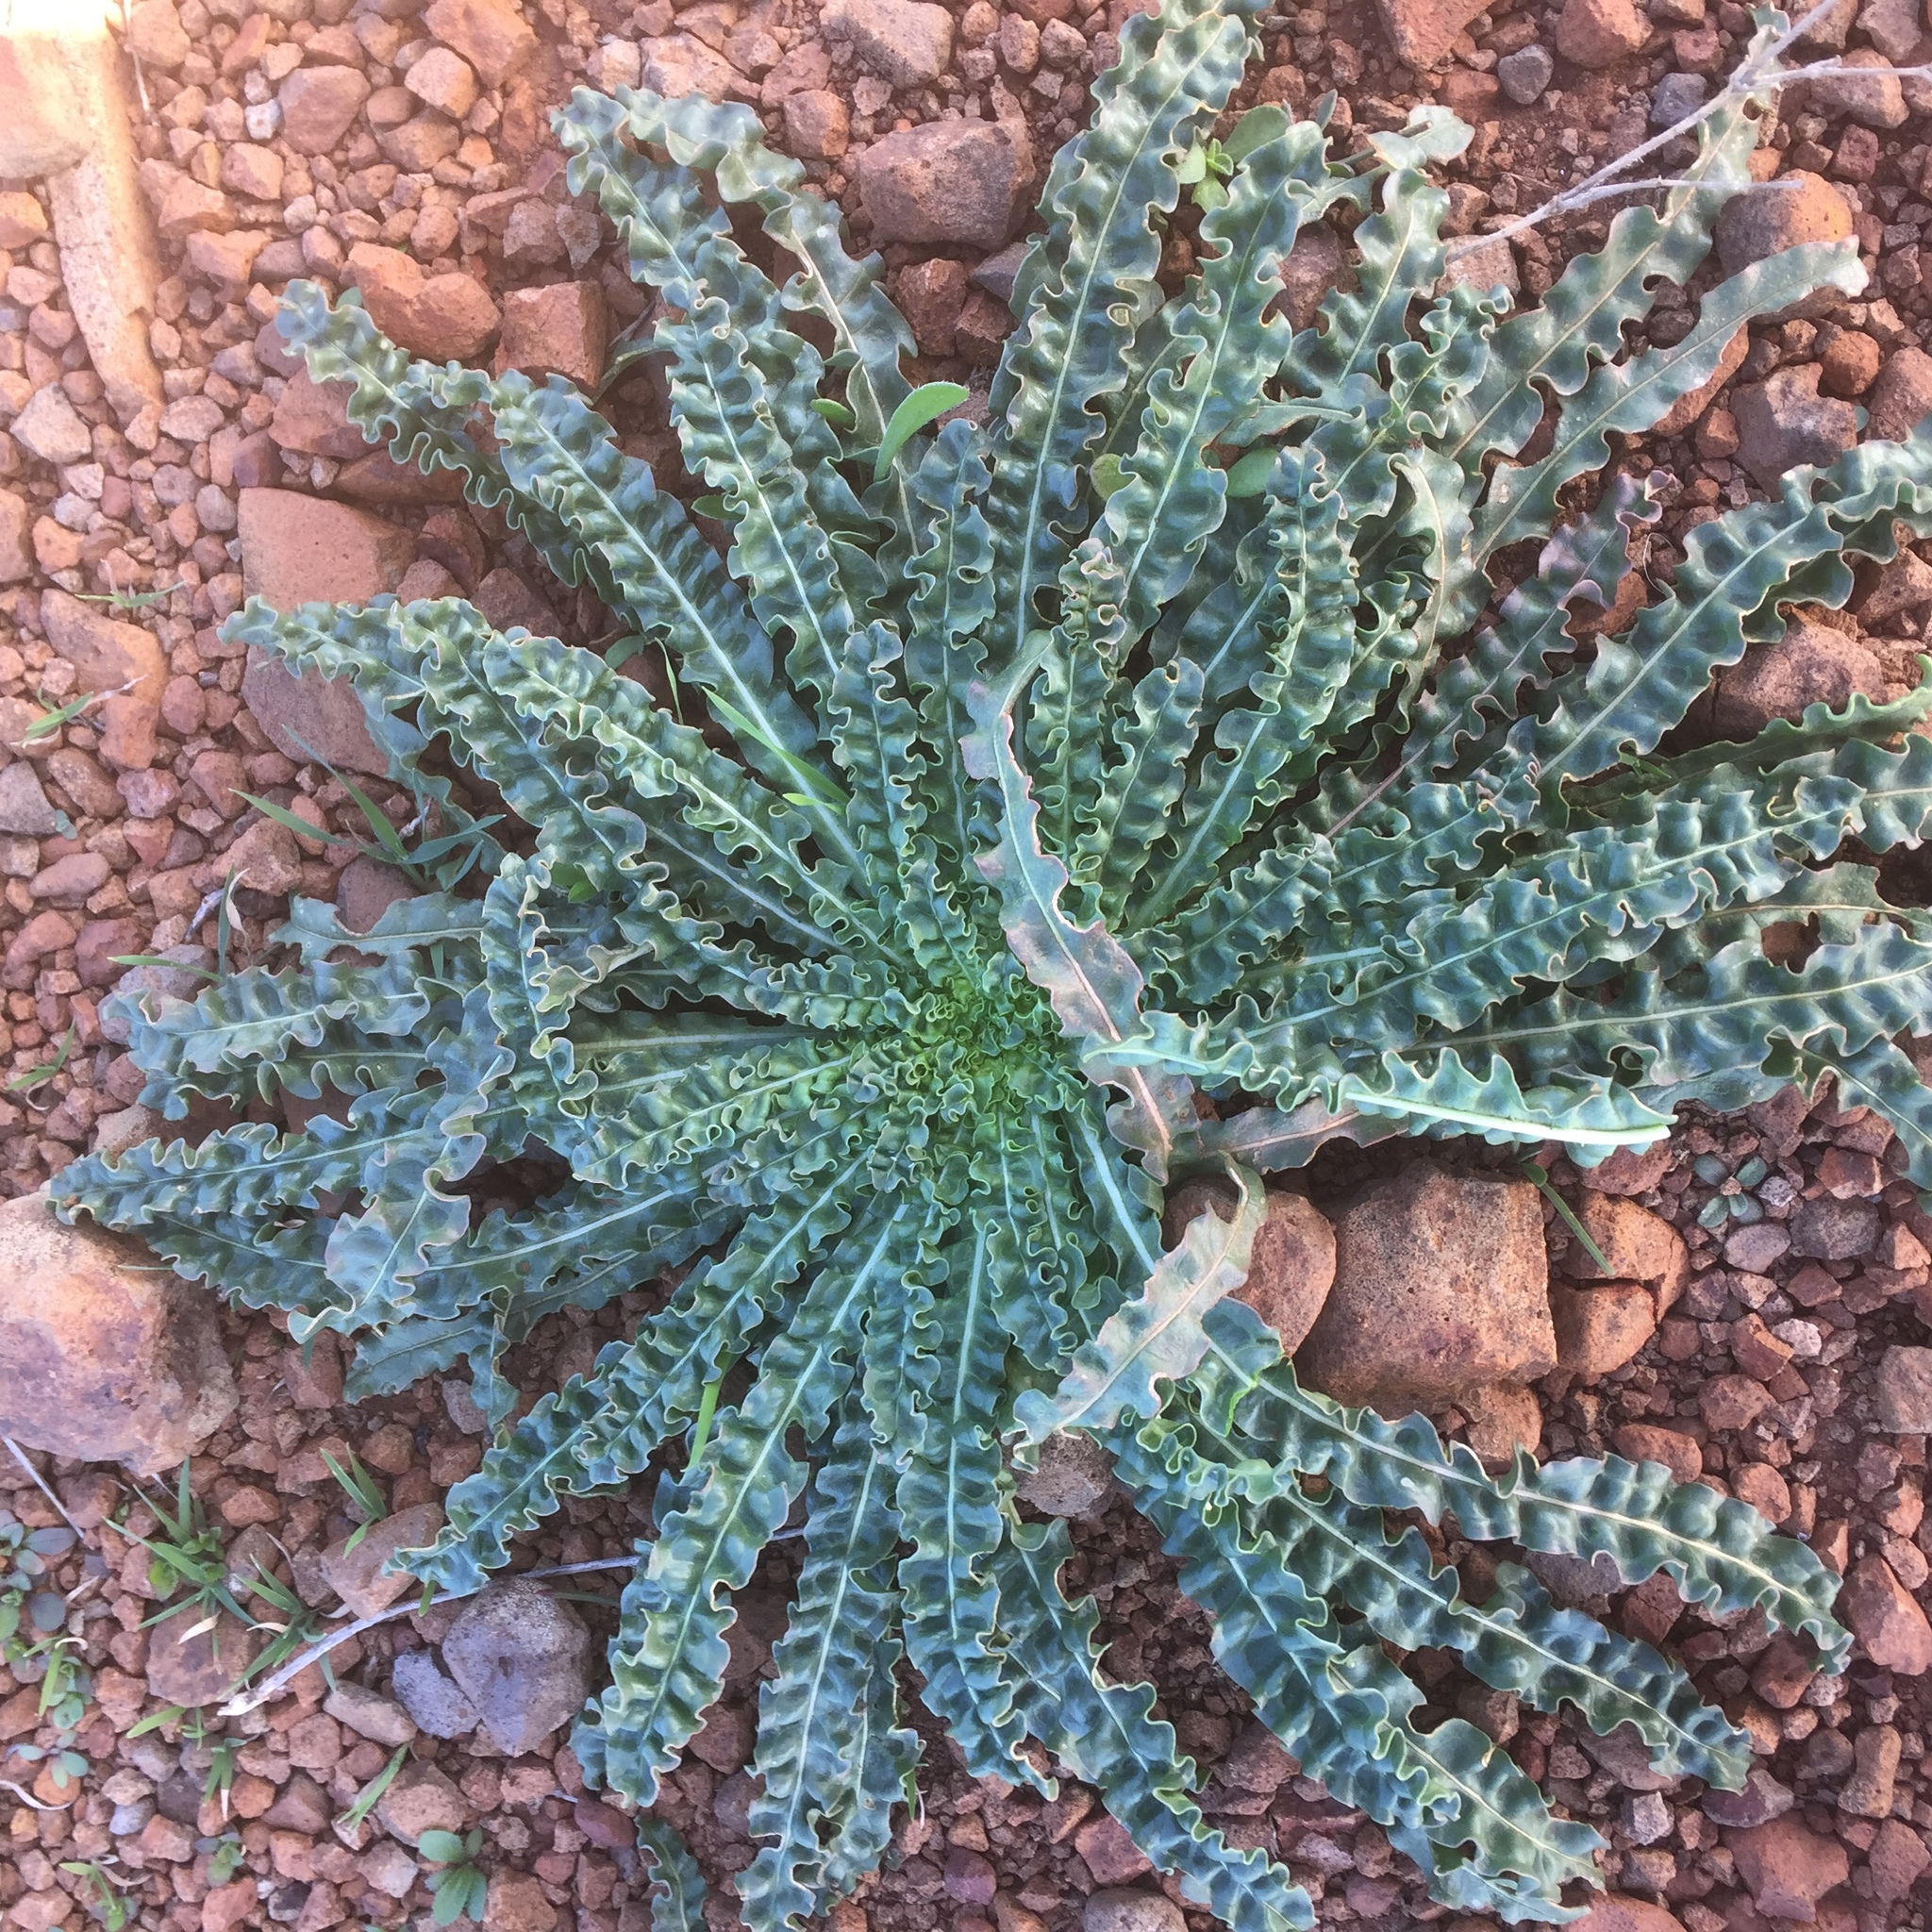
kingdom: Plantae
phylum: Tracheophyta
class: Magnoliopsida
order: Brassicales
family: Resedaceae
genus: Reseda
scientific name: Reseda luteola
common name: Weld
